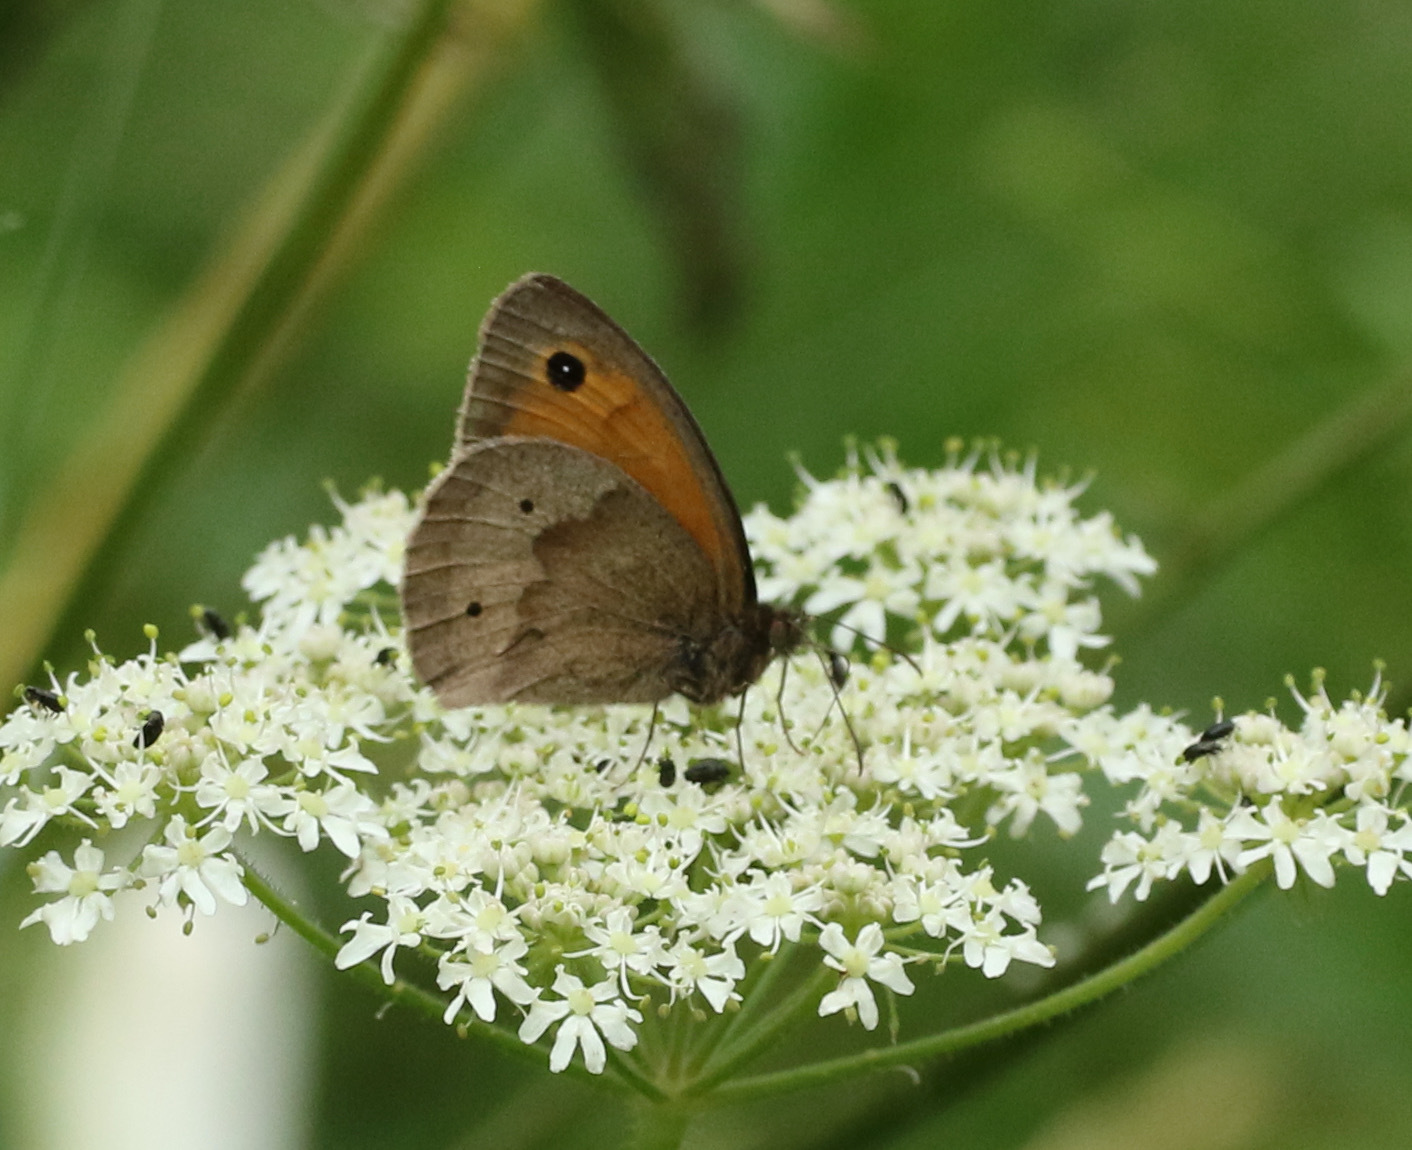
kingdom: Animalia
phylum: Arthropoda
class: Insecta
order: Lepidoptera
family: Nymphalidae
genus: Maniola
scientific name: Maniola jurtina
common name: Meadow brown
